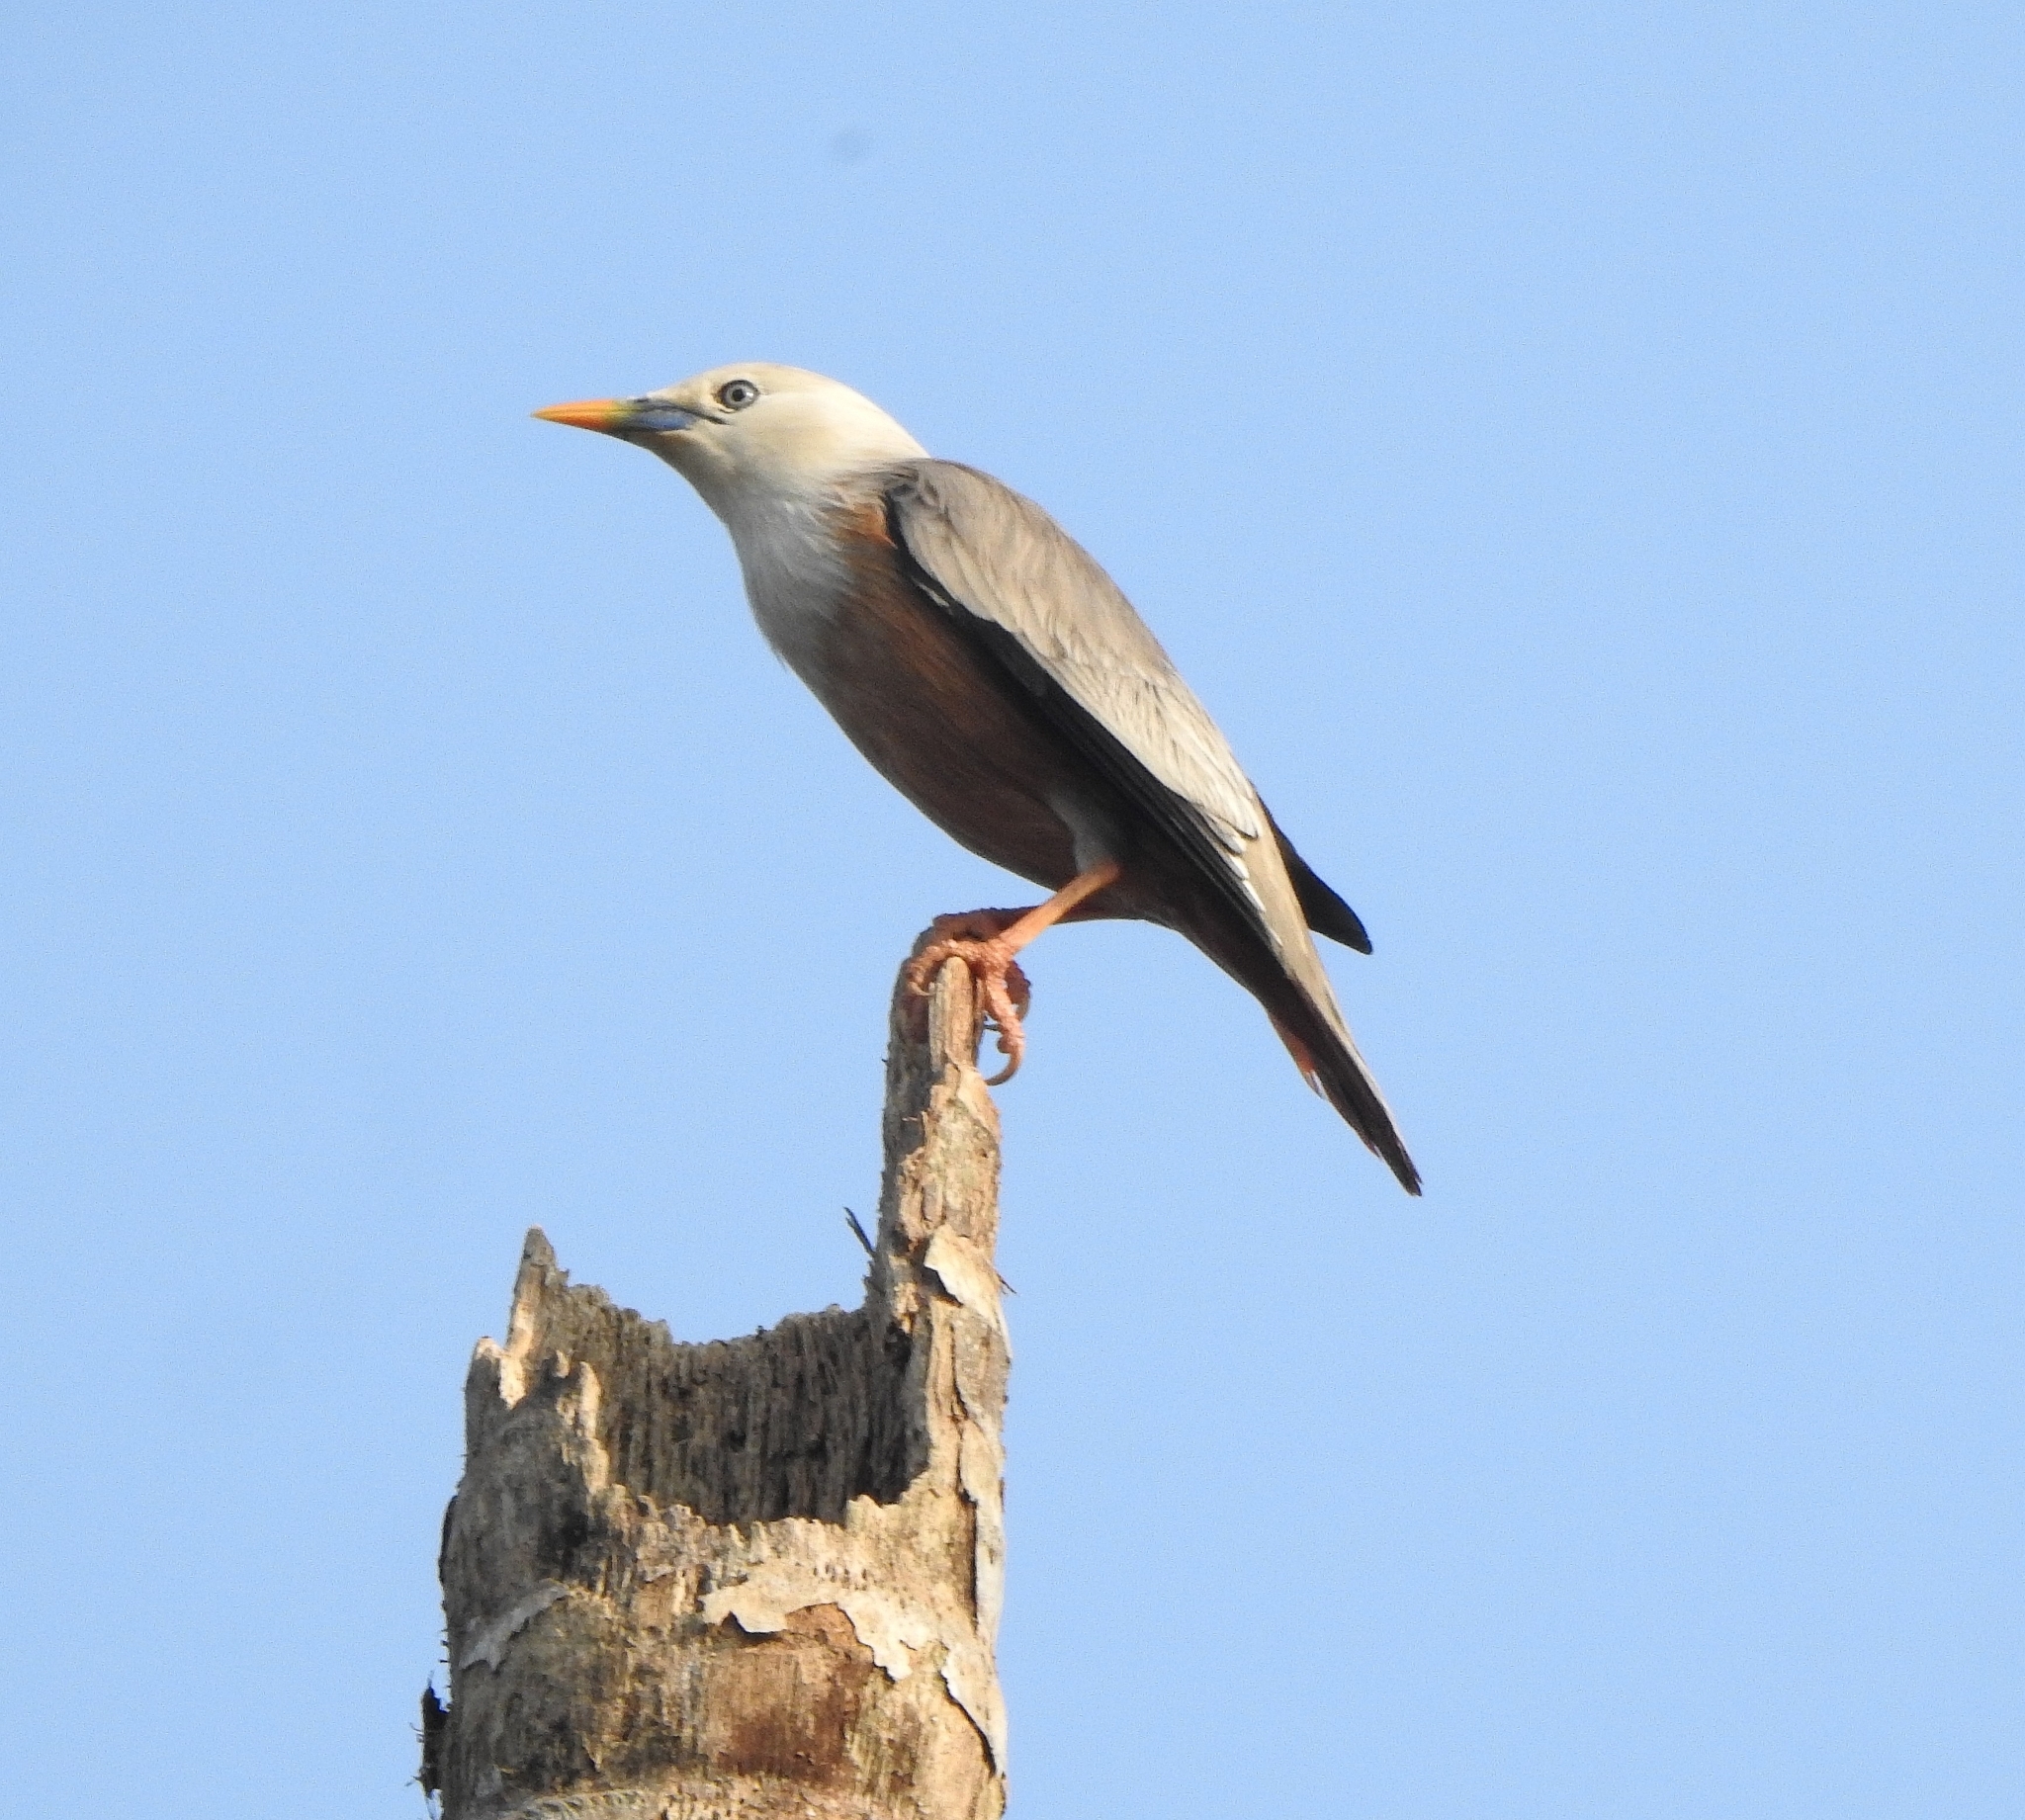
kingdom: Animalia
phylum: Chordata
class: Aves
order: Passeriformes
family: Sturnidae
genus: Sturnia
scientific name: Sturnia blythii
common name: Malabar starling
